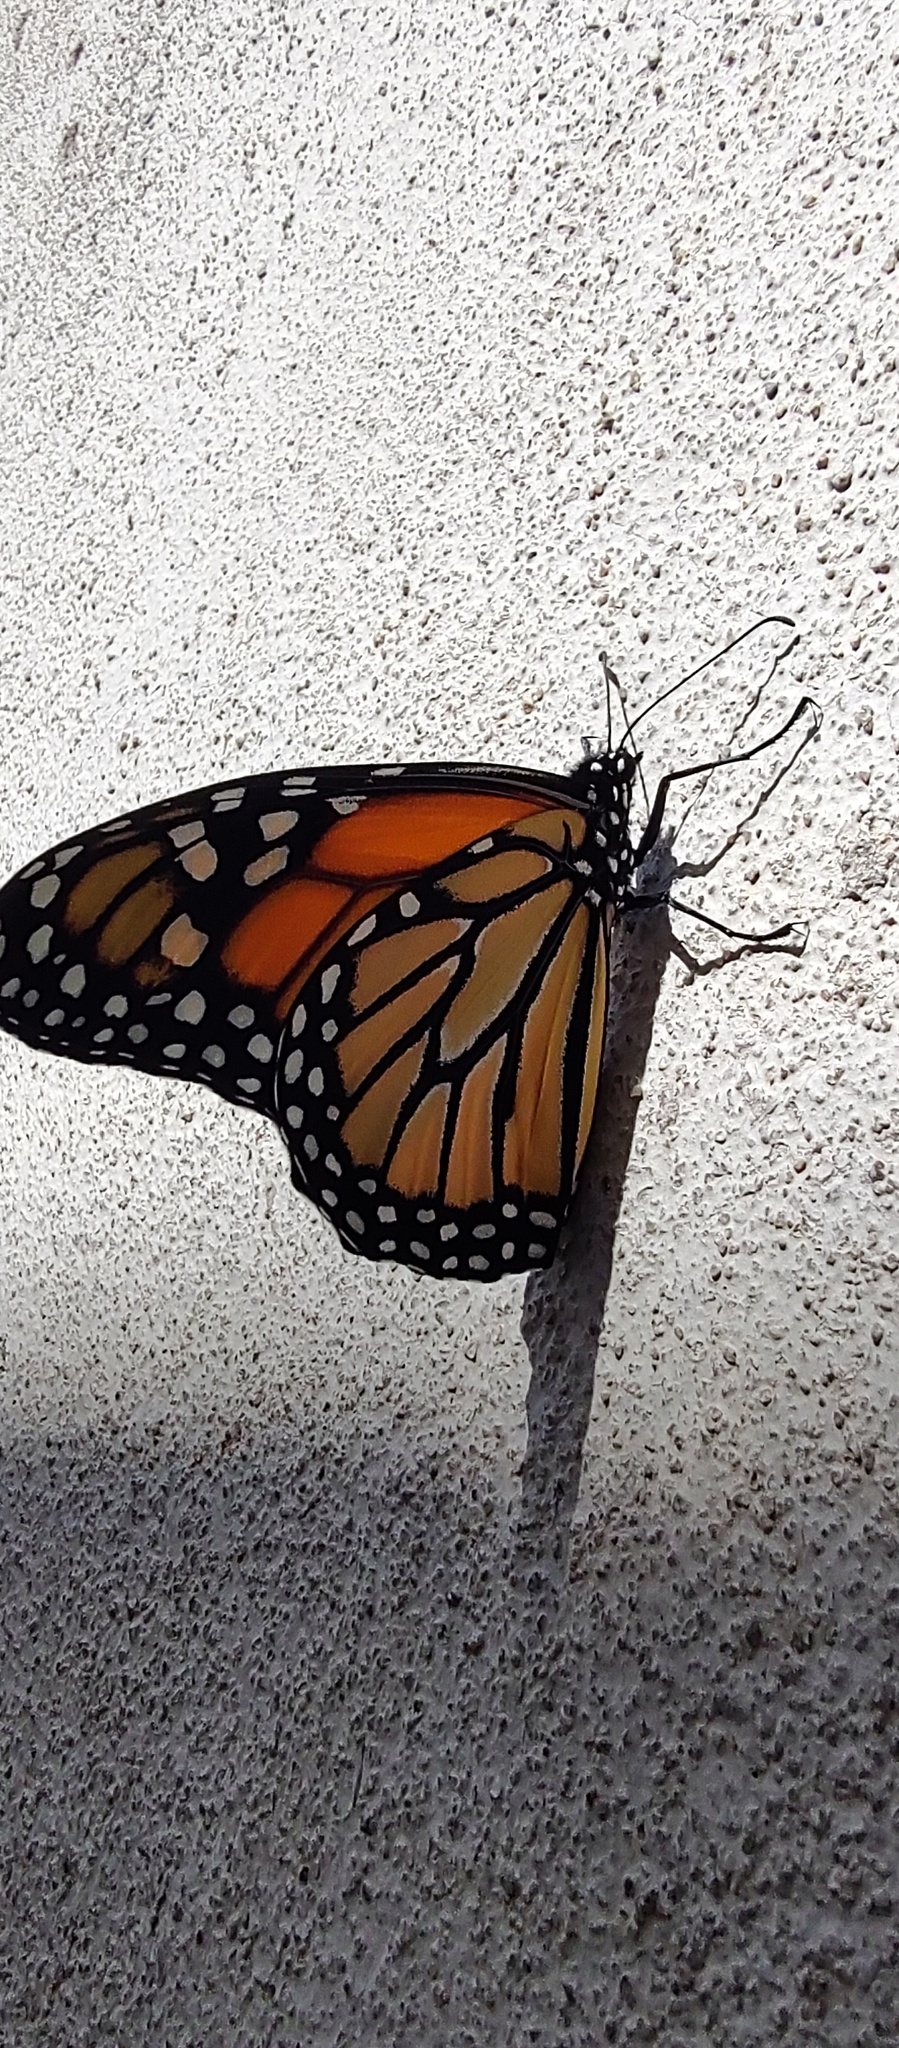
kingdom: Animalia
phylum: Arthropoda
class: Insecta
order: Lepidoptera
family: Nymphalidae
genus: Danaus
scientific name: Danaus plexippus
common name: Monarch
